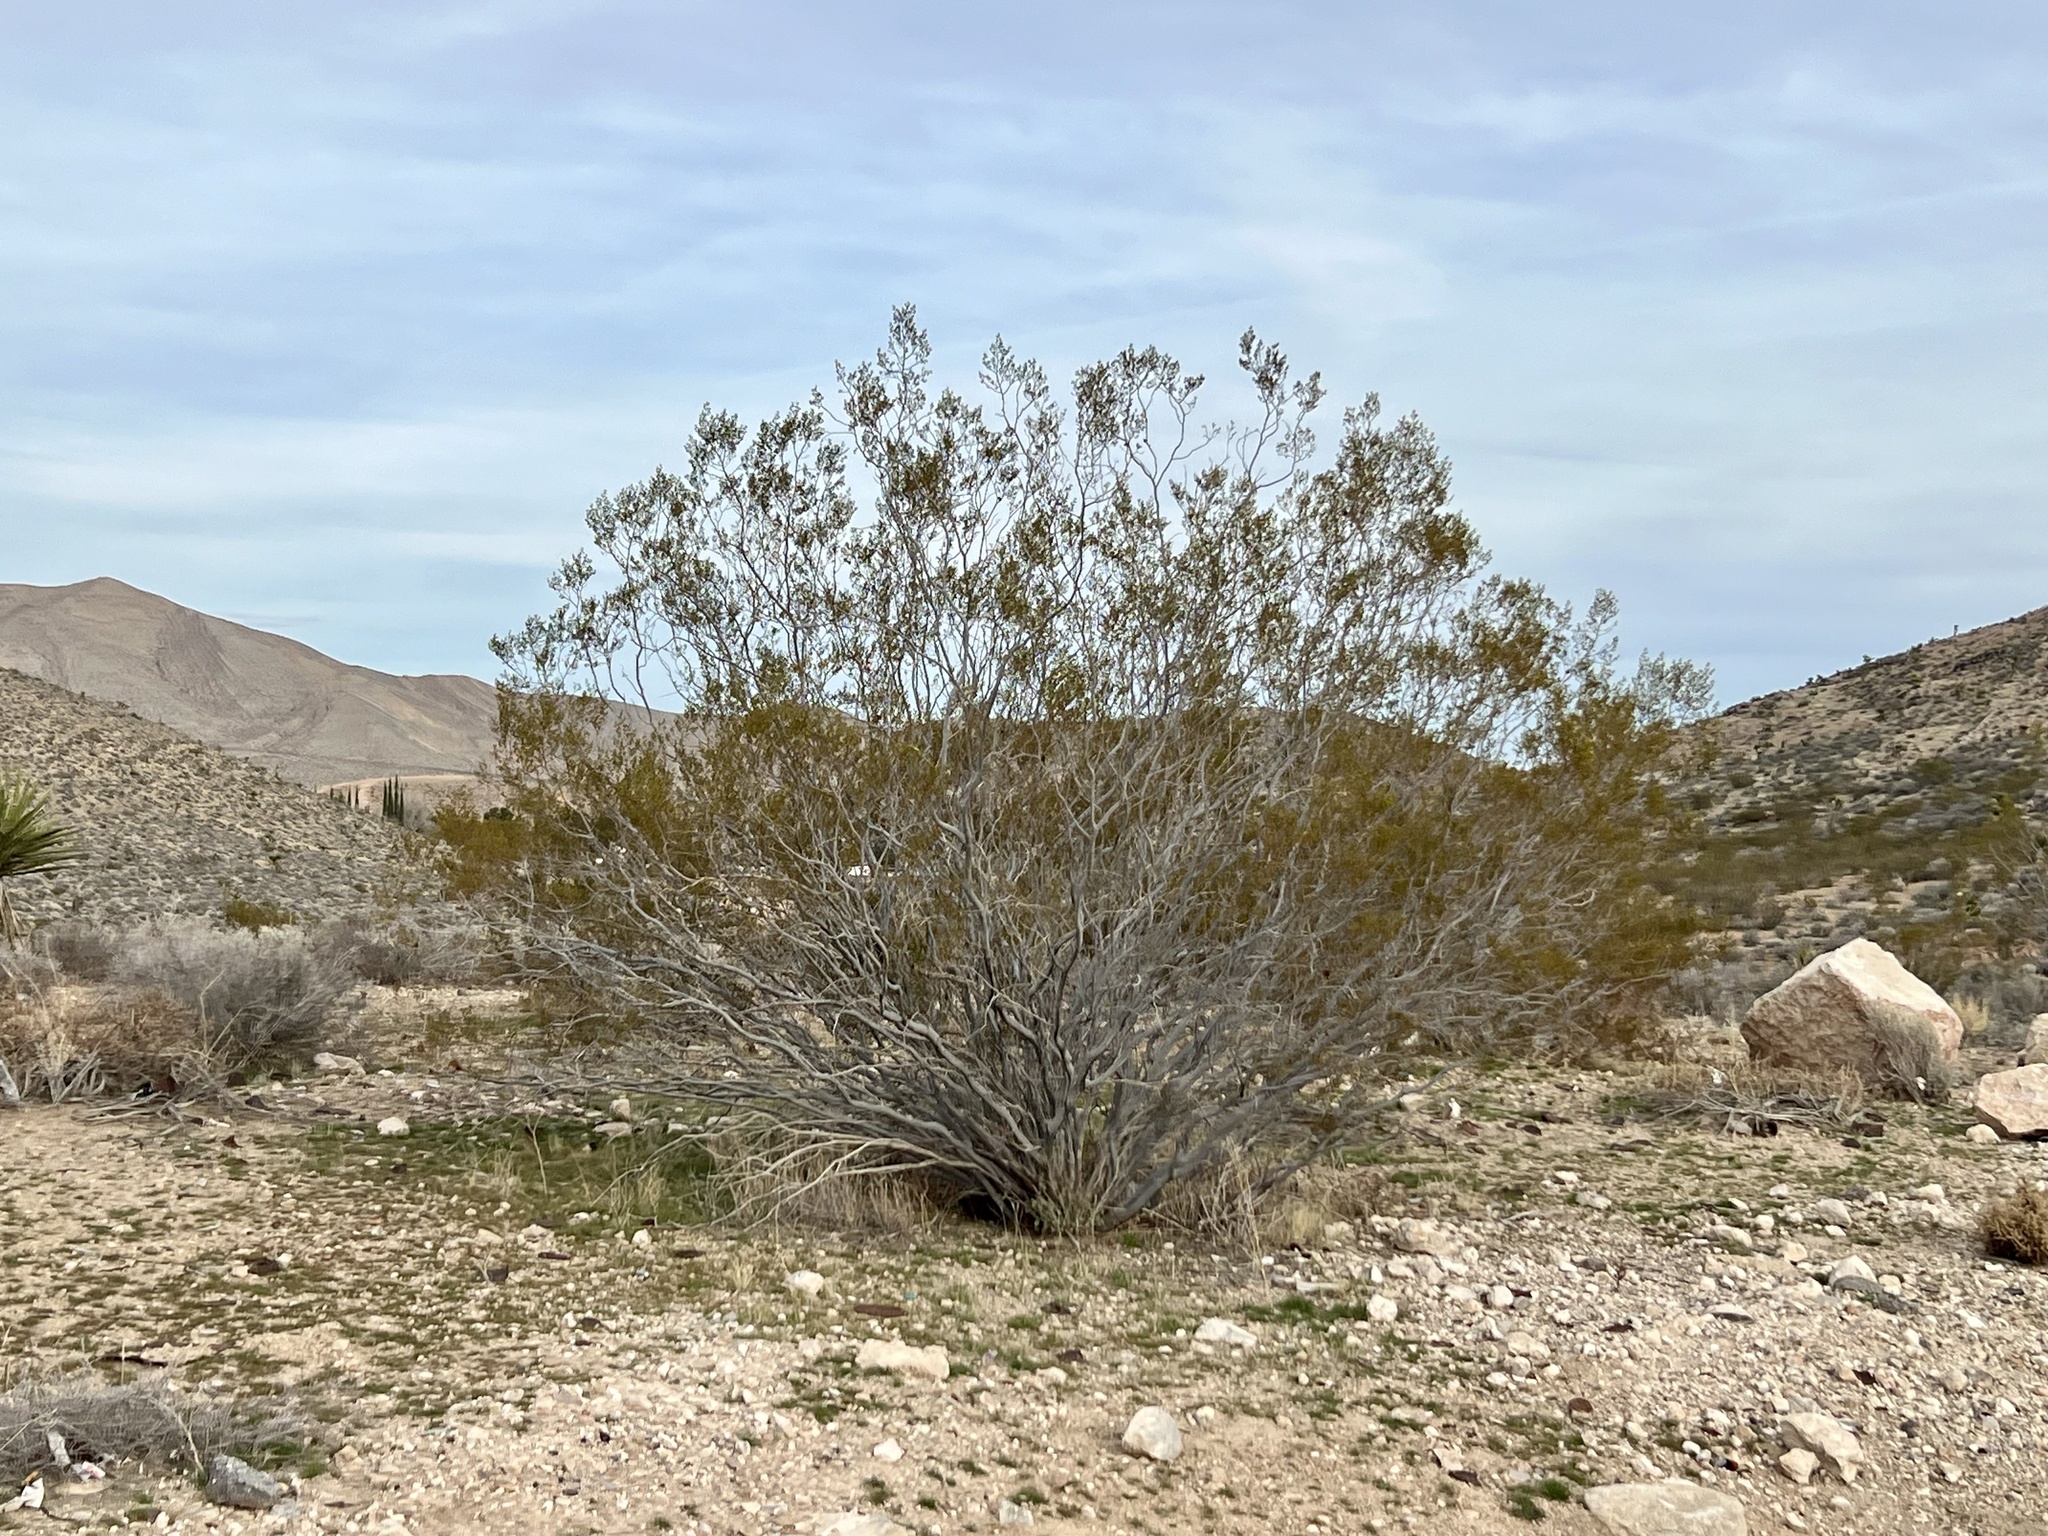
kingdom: Plantae
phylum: Tracheophyta
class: Magnoliopsida
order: Zygophyllales
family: Zygophyllaceae
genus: Larrea
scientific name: Larrea tridentata
